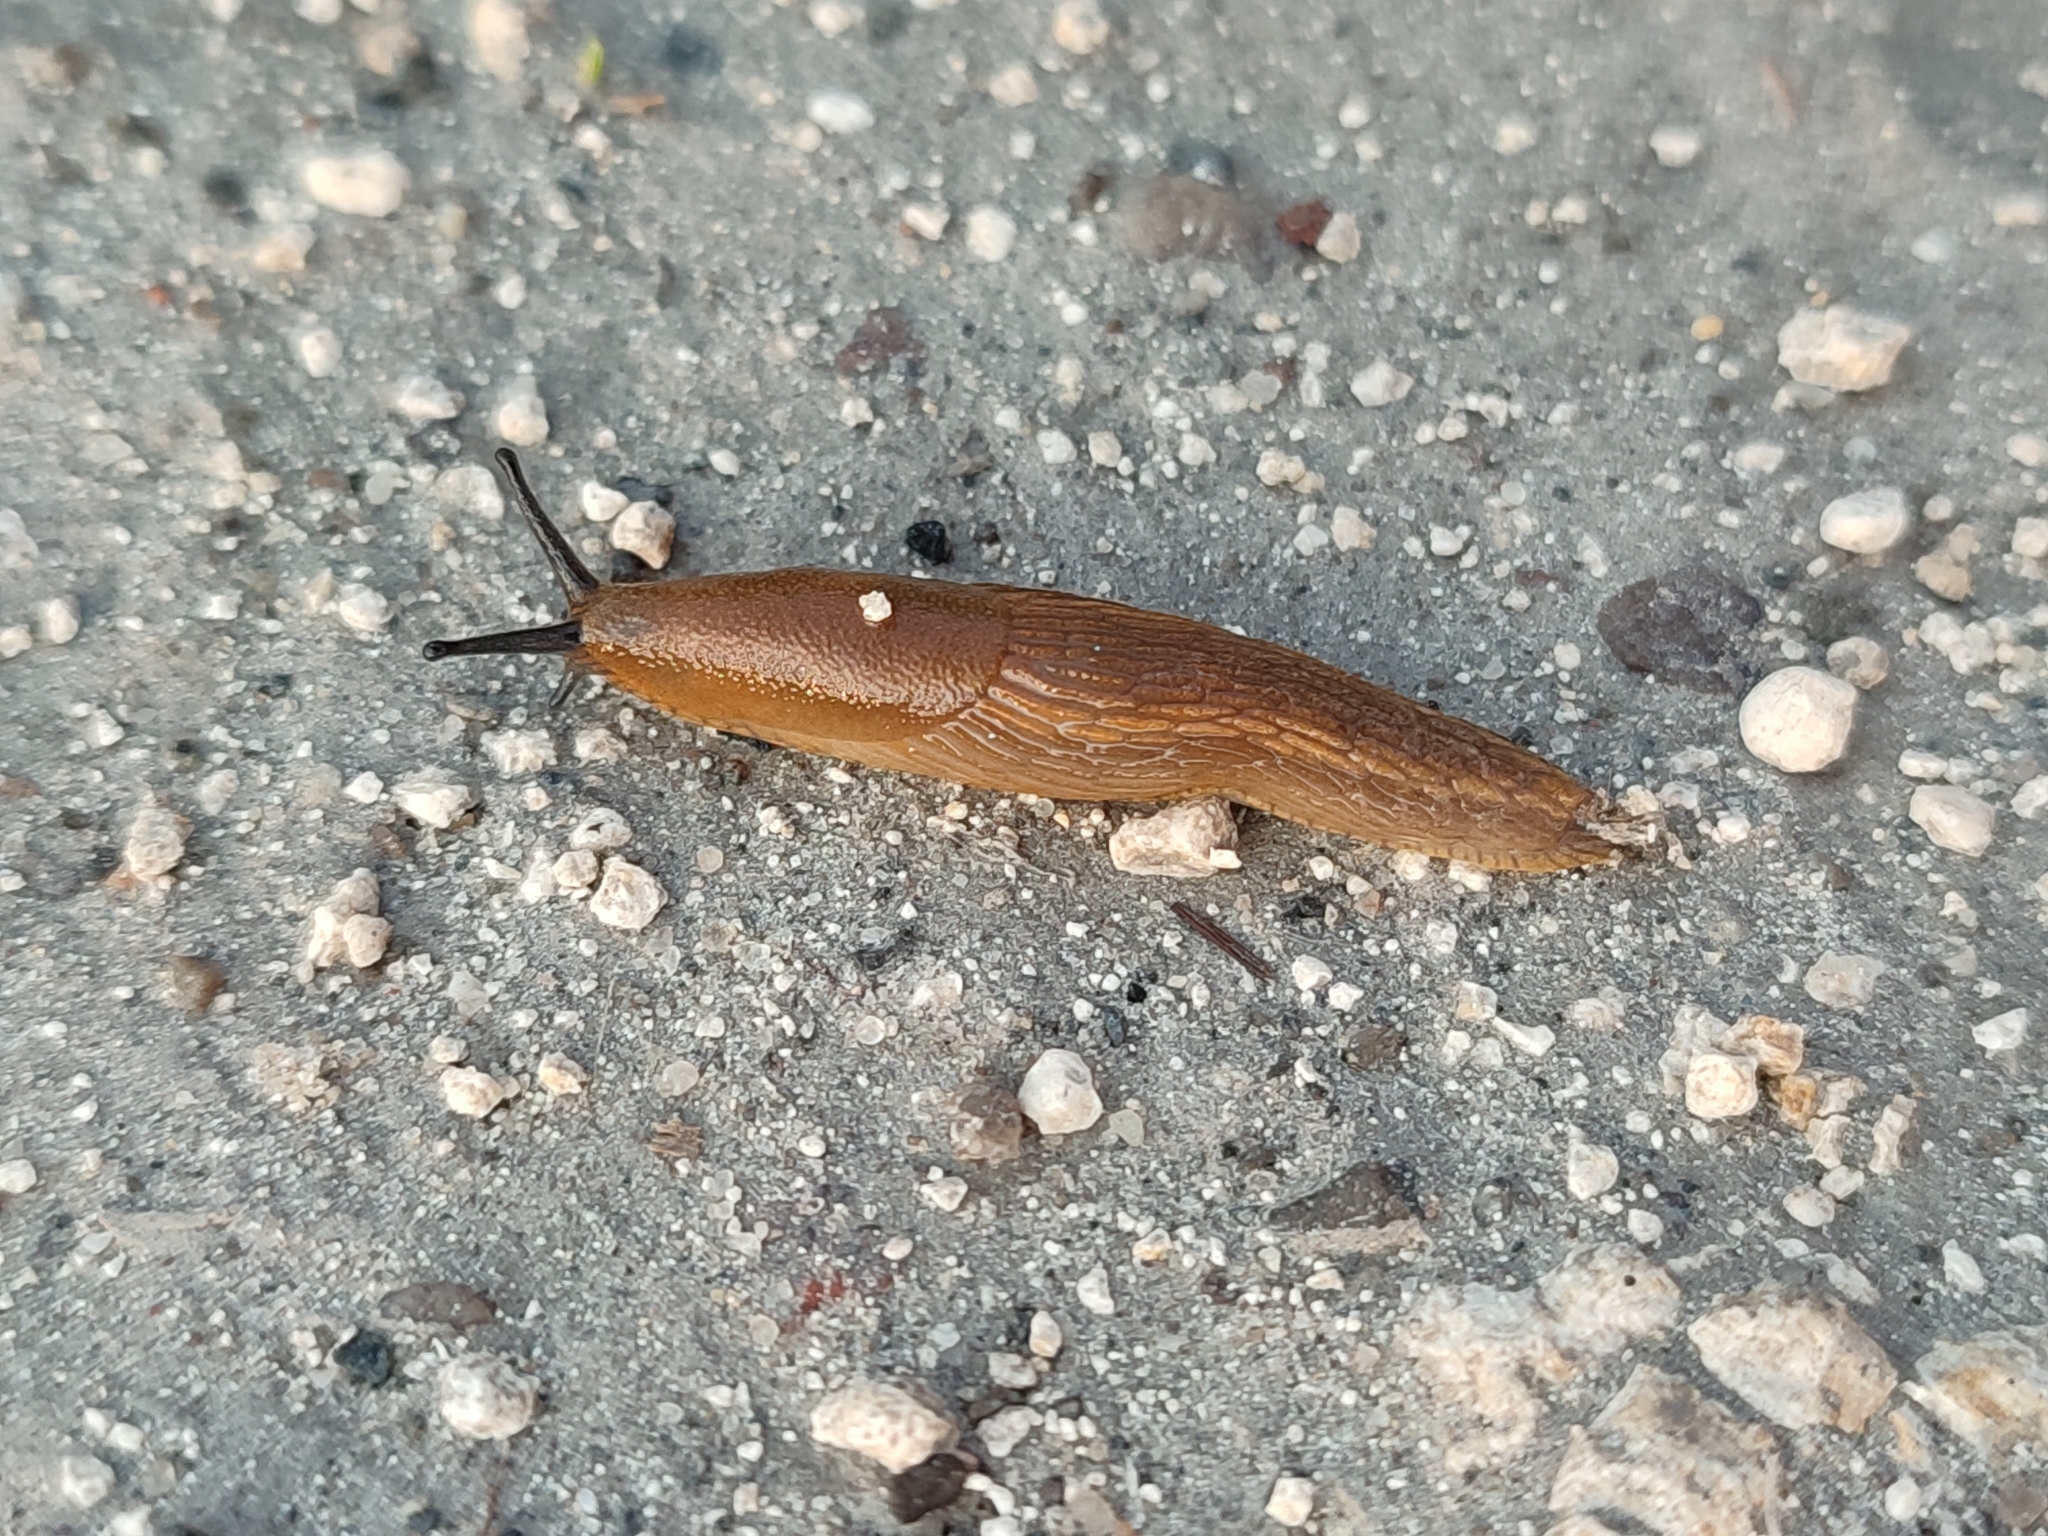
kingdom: Animalia
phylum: Mollusca
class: Gastropoda
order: Stylommatophora
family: Arionidae
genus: Arion
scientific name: Arion vulgaris
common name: Lusitanian slug
